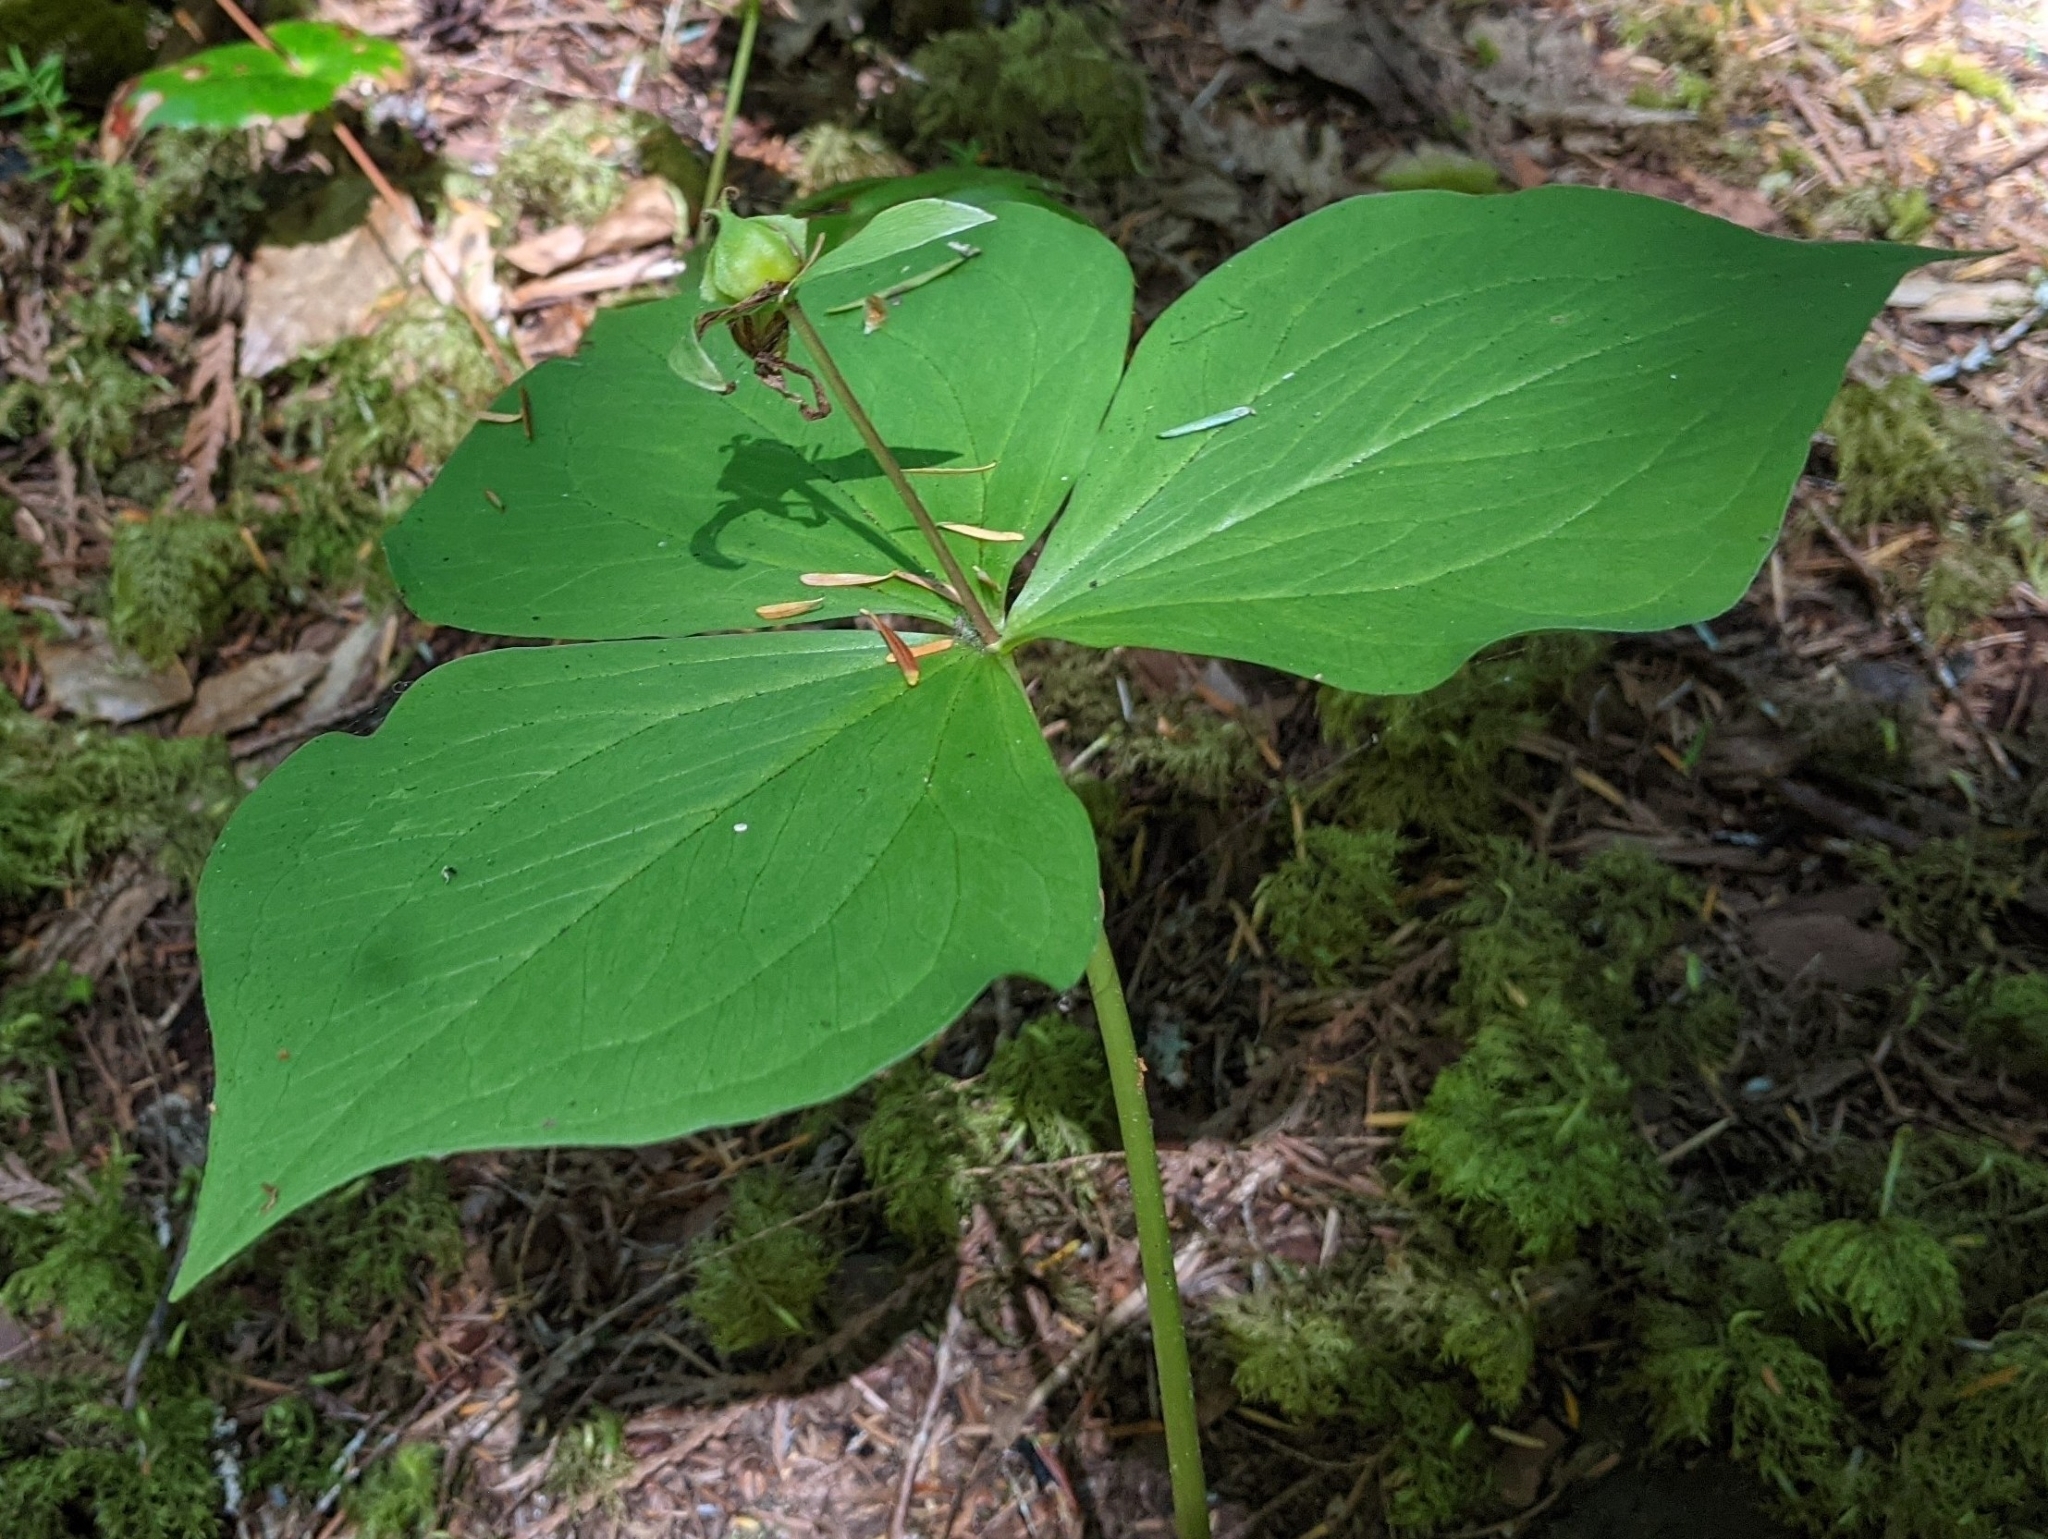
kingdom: Plantae
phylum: Tracheophyta
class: Liliopsida
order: Liliales
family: Melanthiaceae
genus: Trillium
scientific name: Trillium ovatum
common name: Pacific trillium
